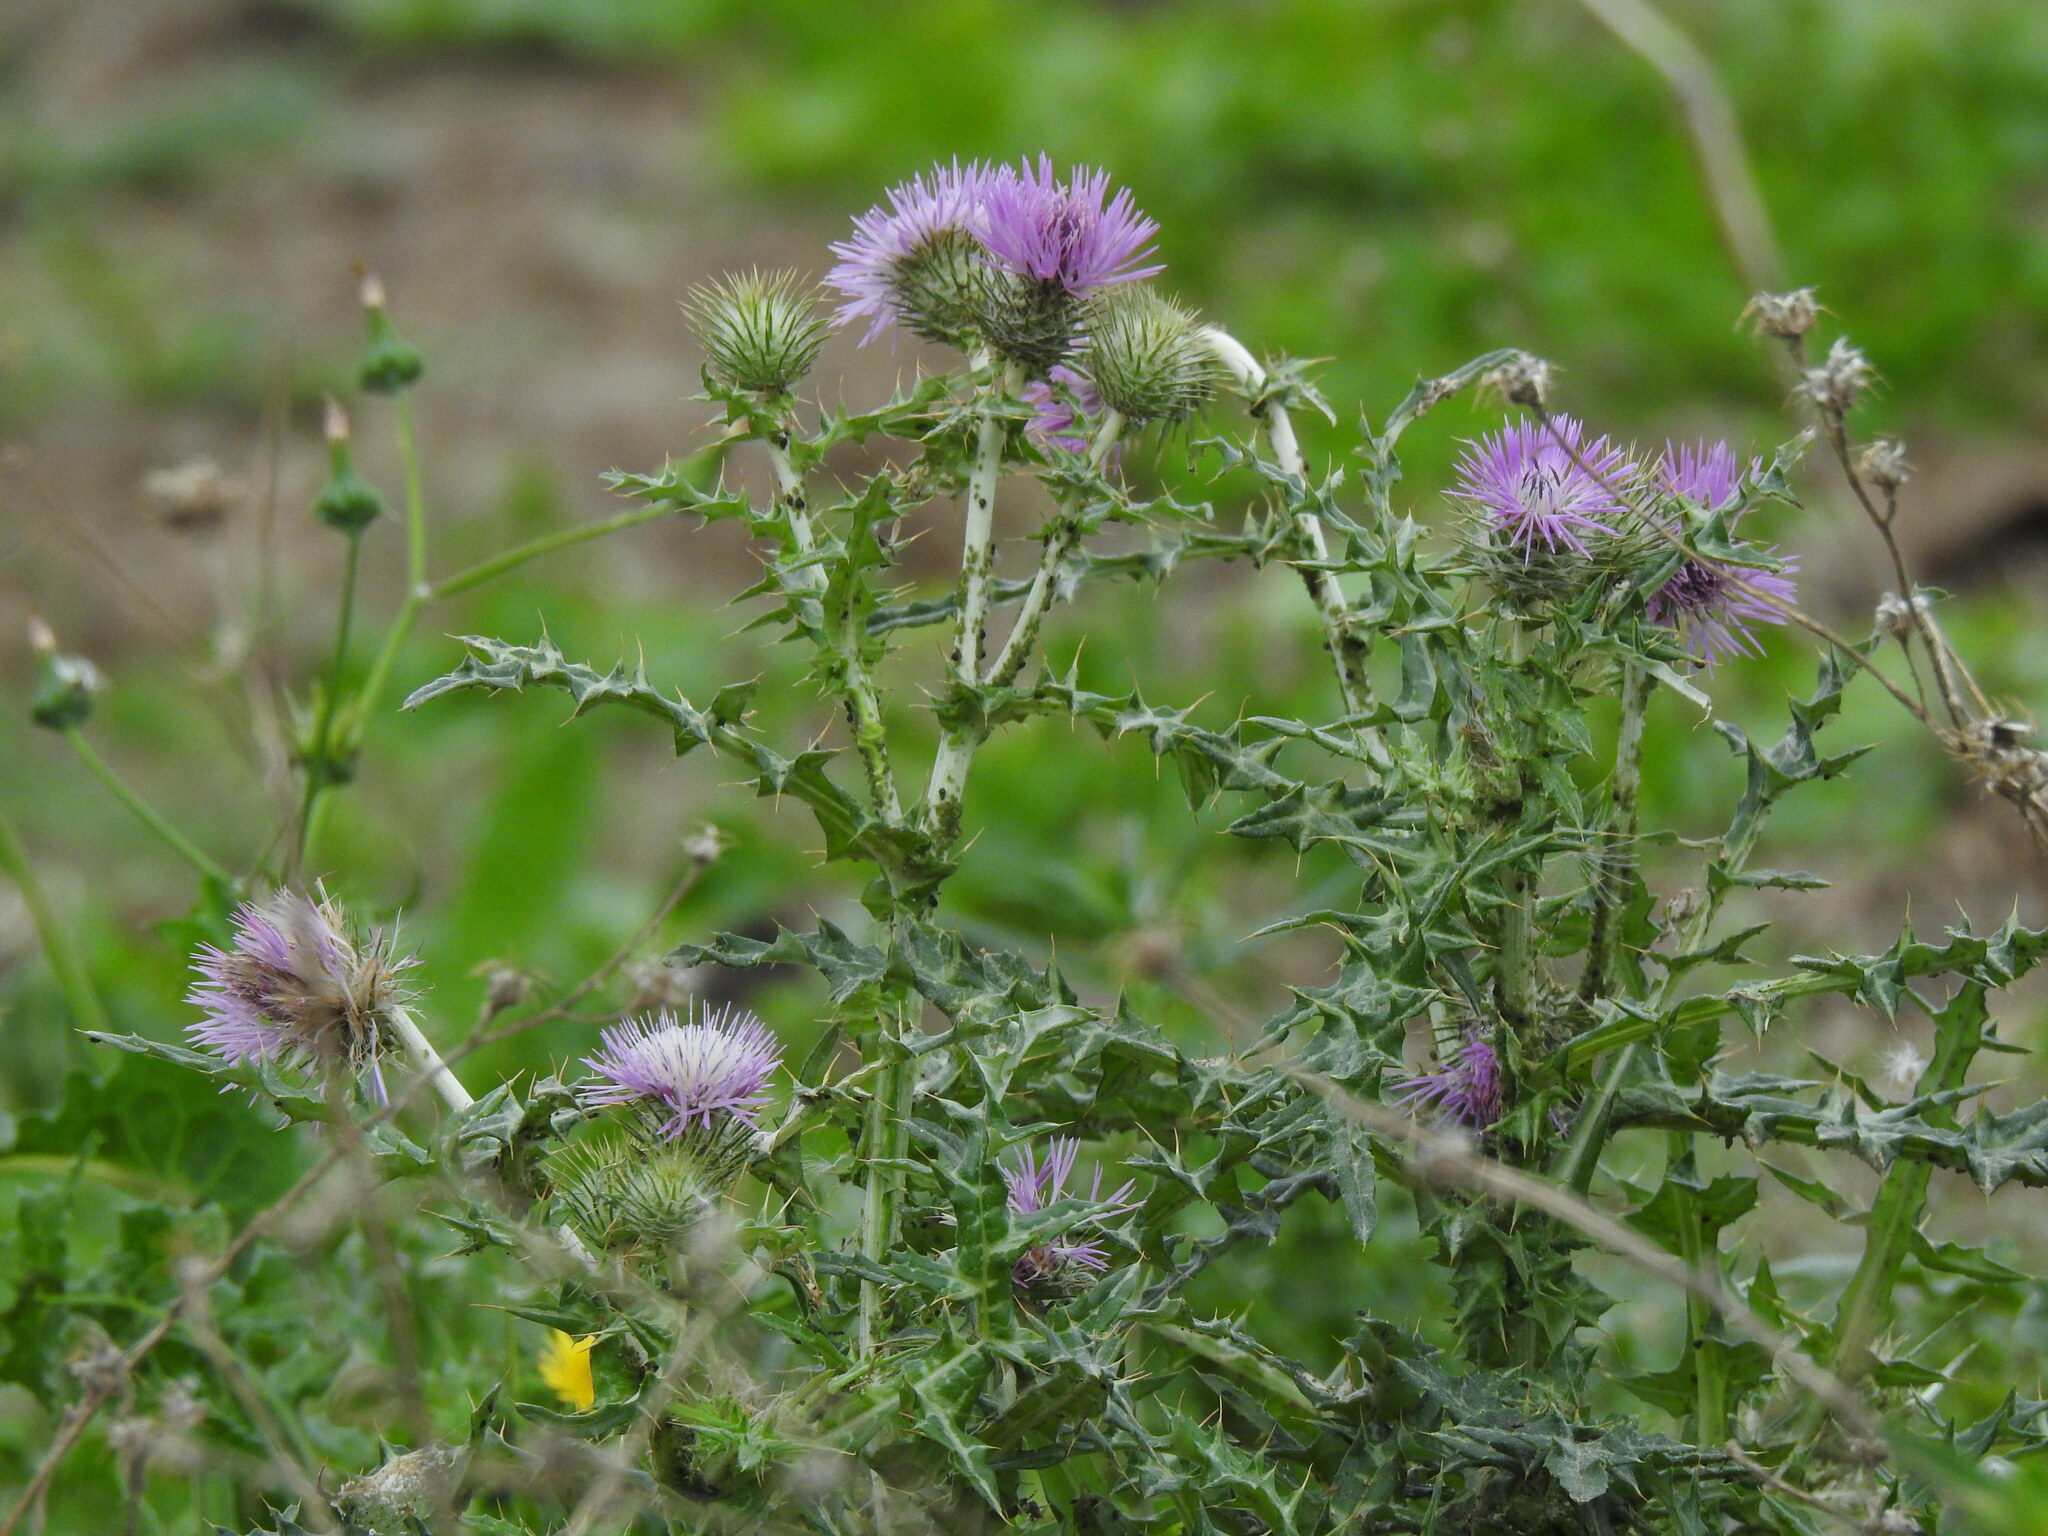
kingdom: Plantae
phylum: Tracheophyta
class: Magnoliopsida
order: Asterales
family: Asteraceae
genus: Galactites
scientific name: Galactites tomentosa
